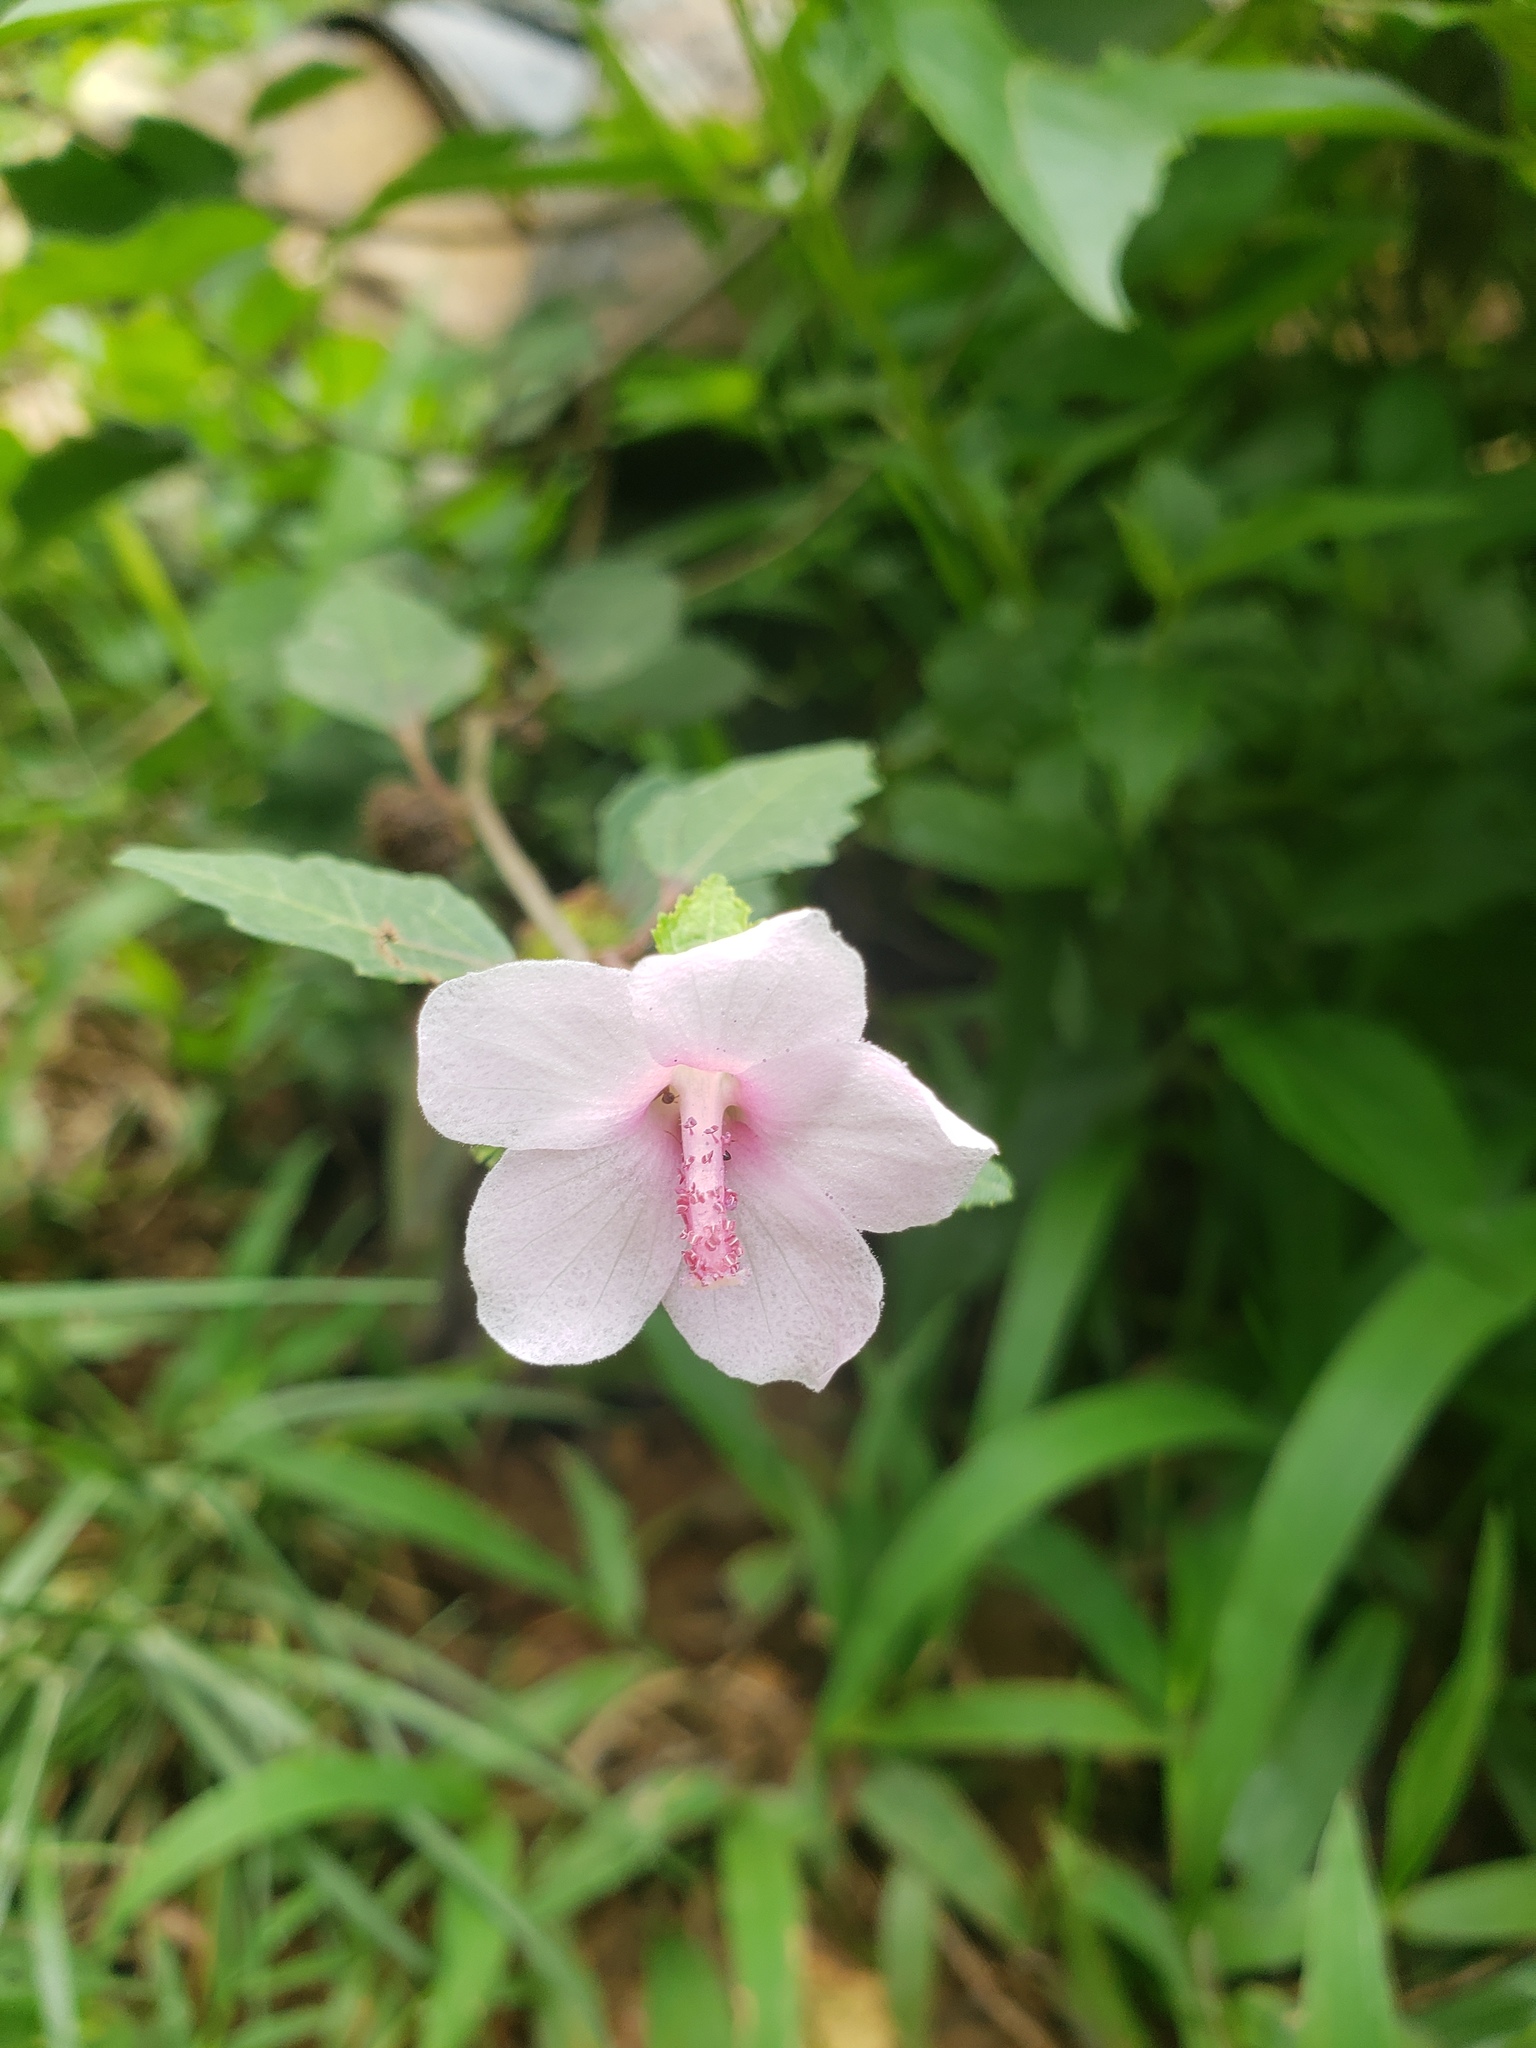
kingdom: Plantae
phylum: Tracheophyta
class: Magnoliopsida
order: Malvales
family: Malvaceae
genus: Urena
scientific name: Urena lobata
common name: Caesarweed
